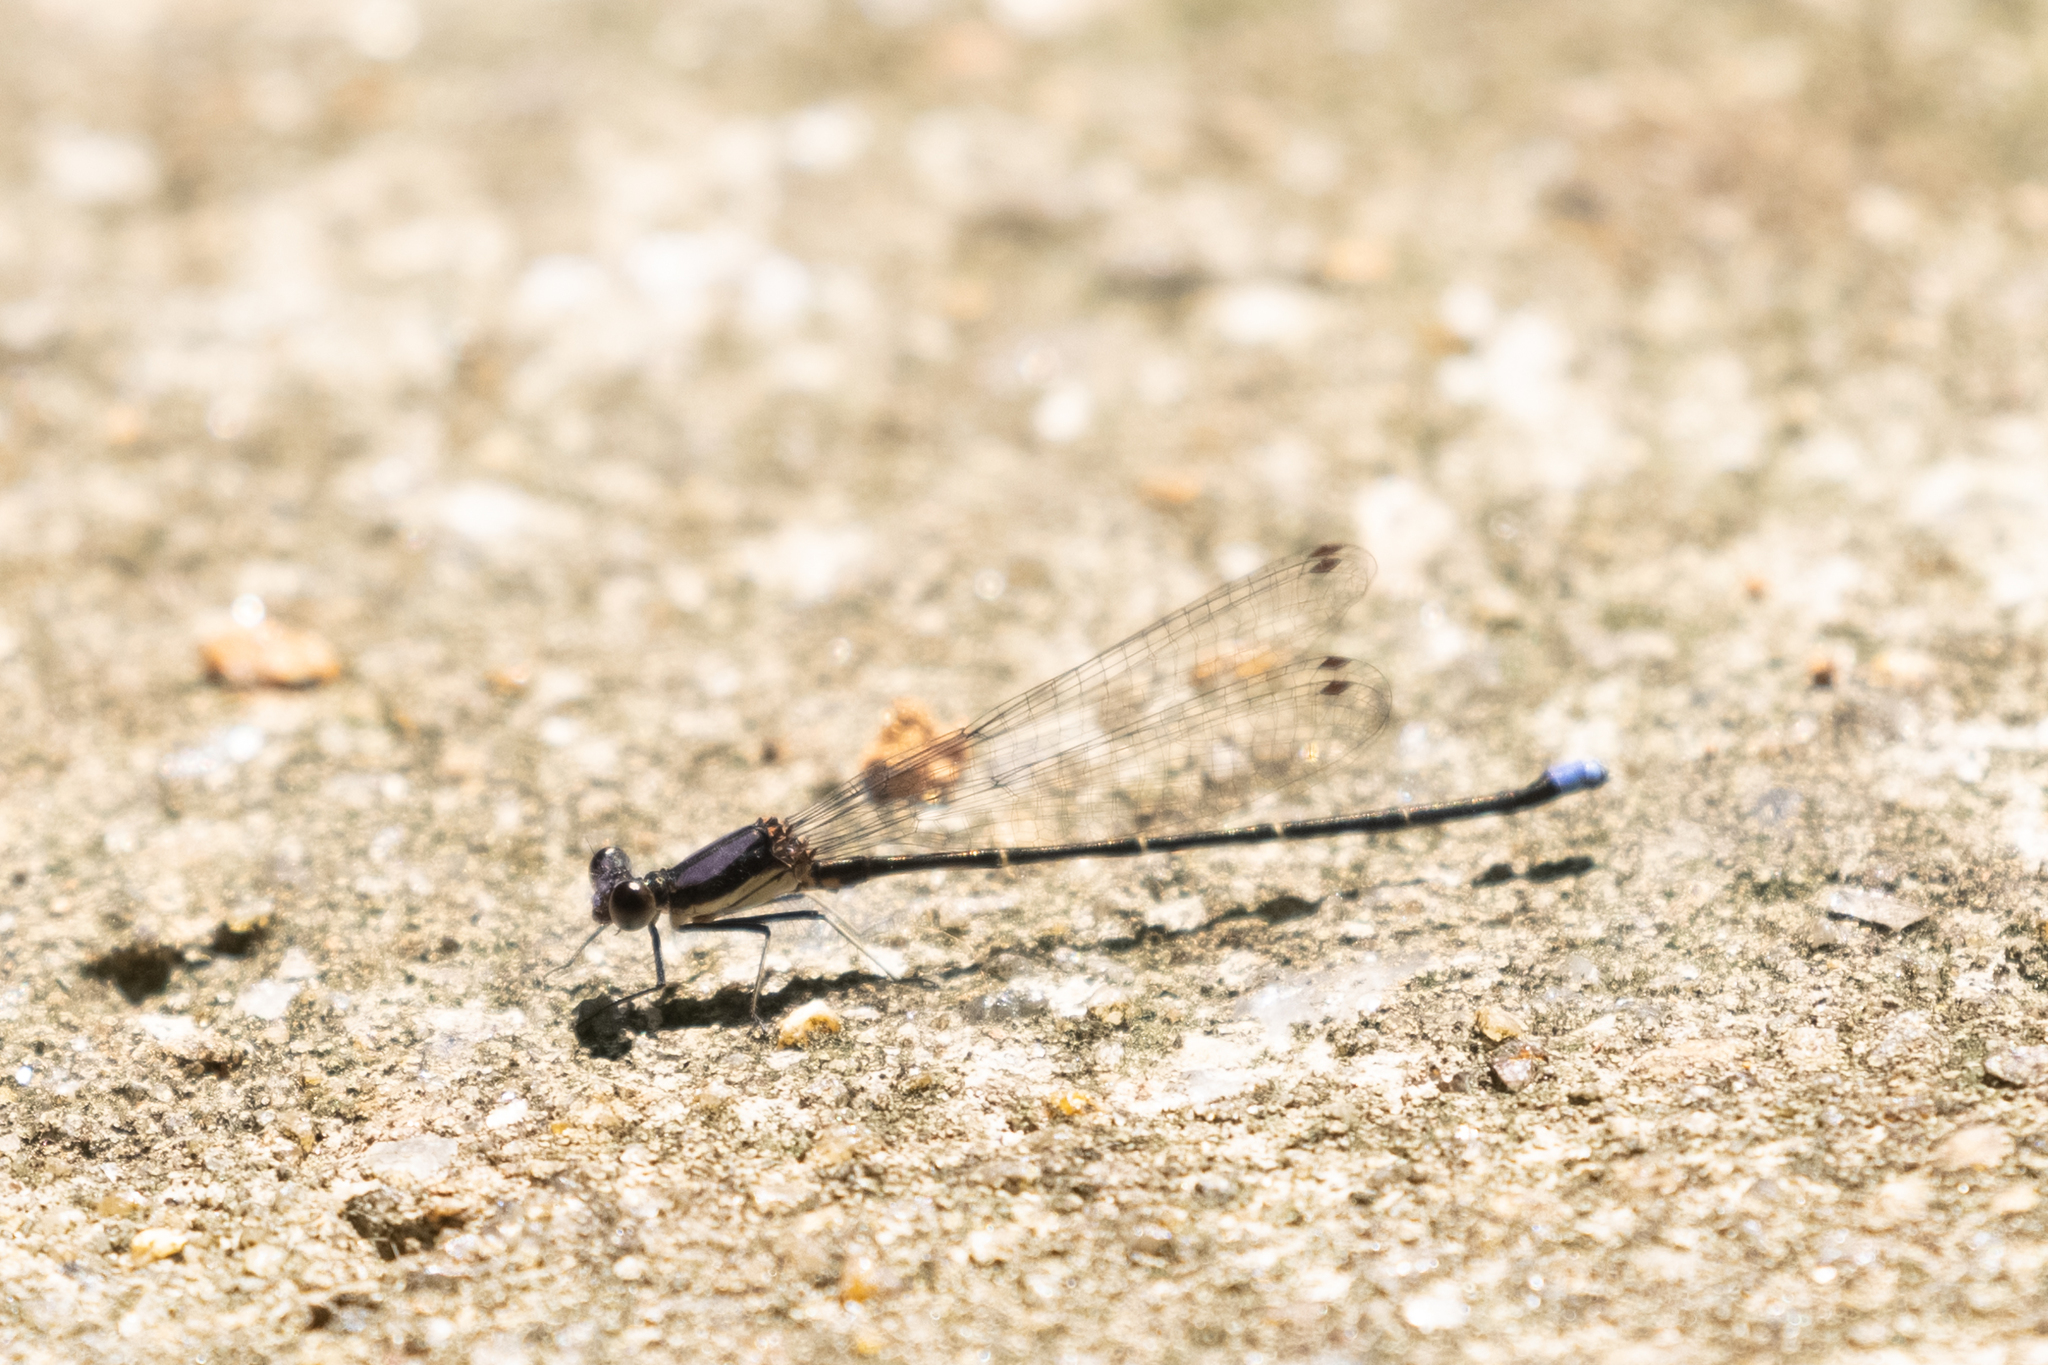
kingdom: Animalia
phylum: Arthropoda
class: Insecta
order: Odonata
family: Coenagrionidae
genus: Argia
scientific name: Argia tibialis
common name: Blue-tipped dancer
